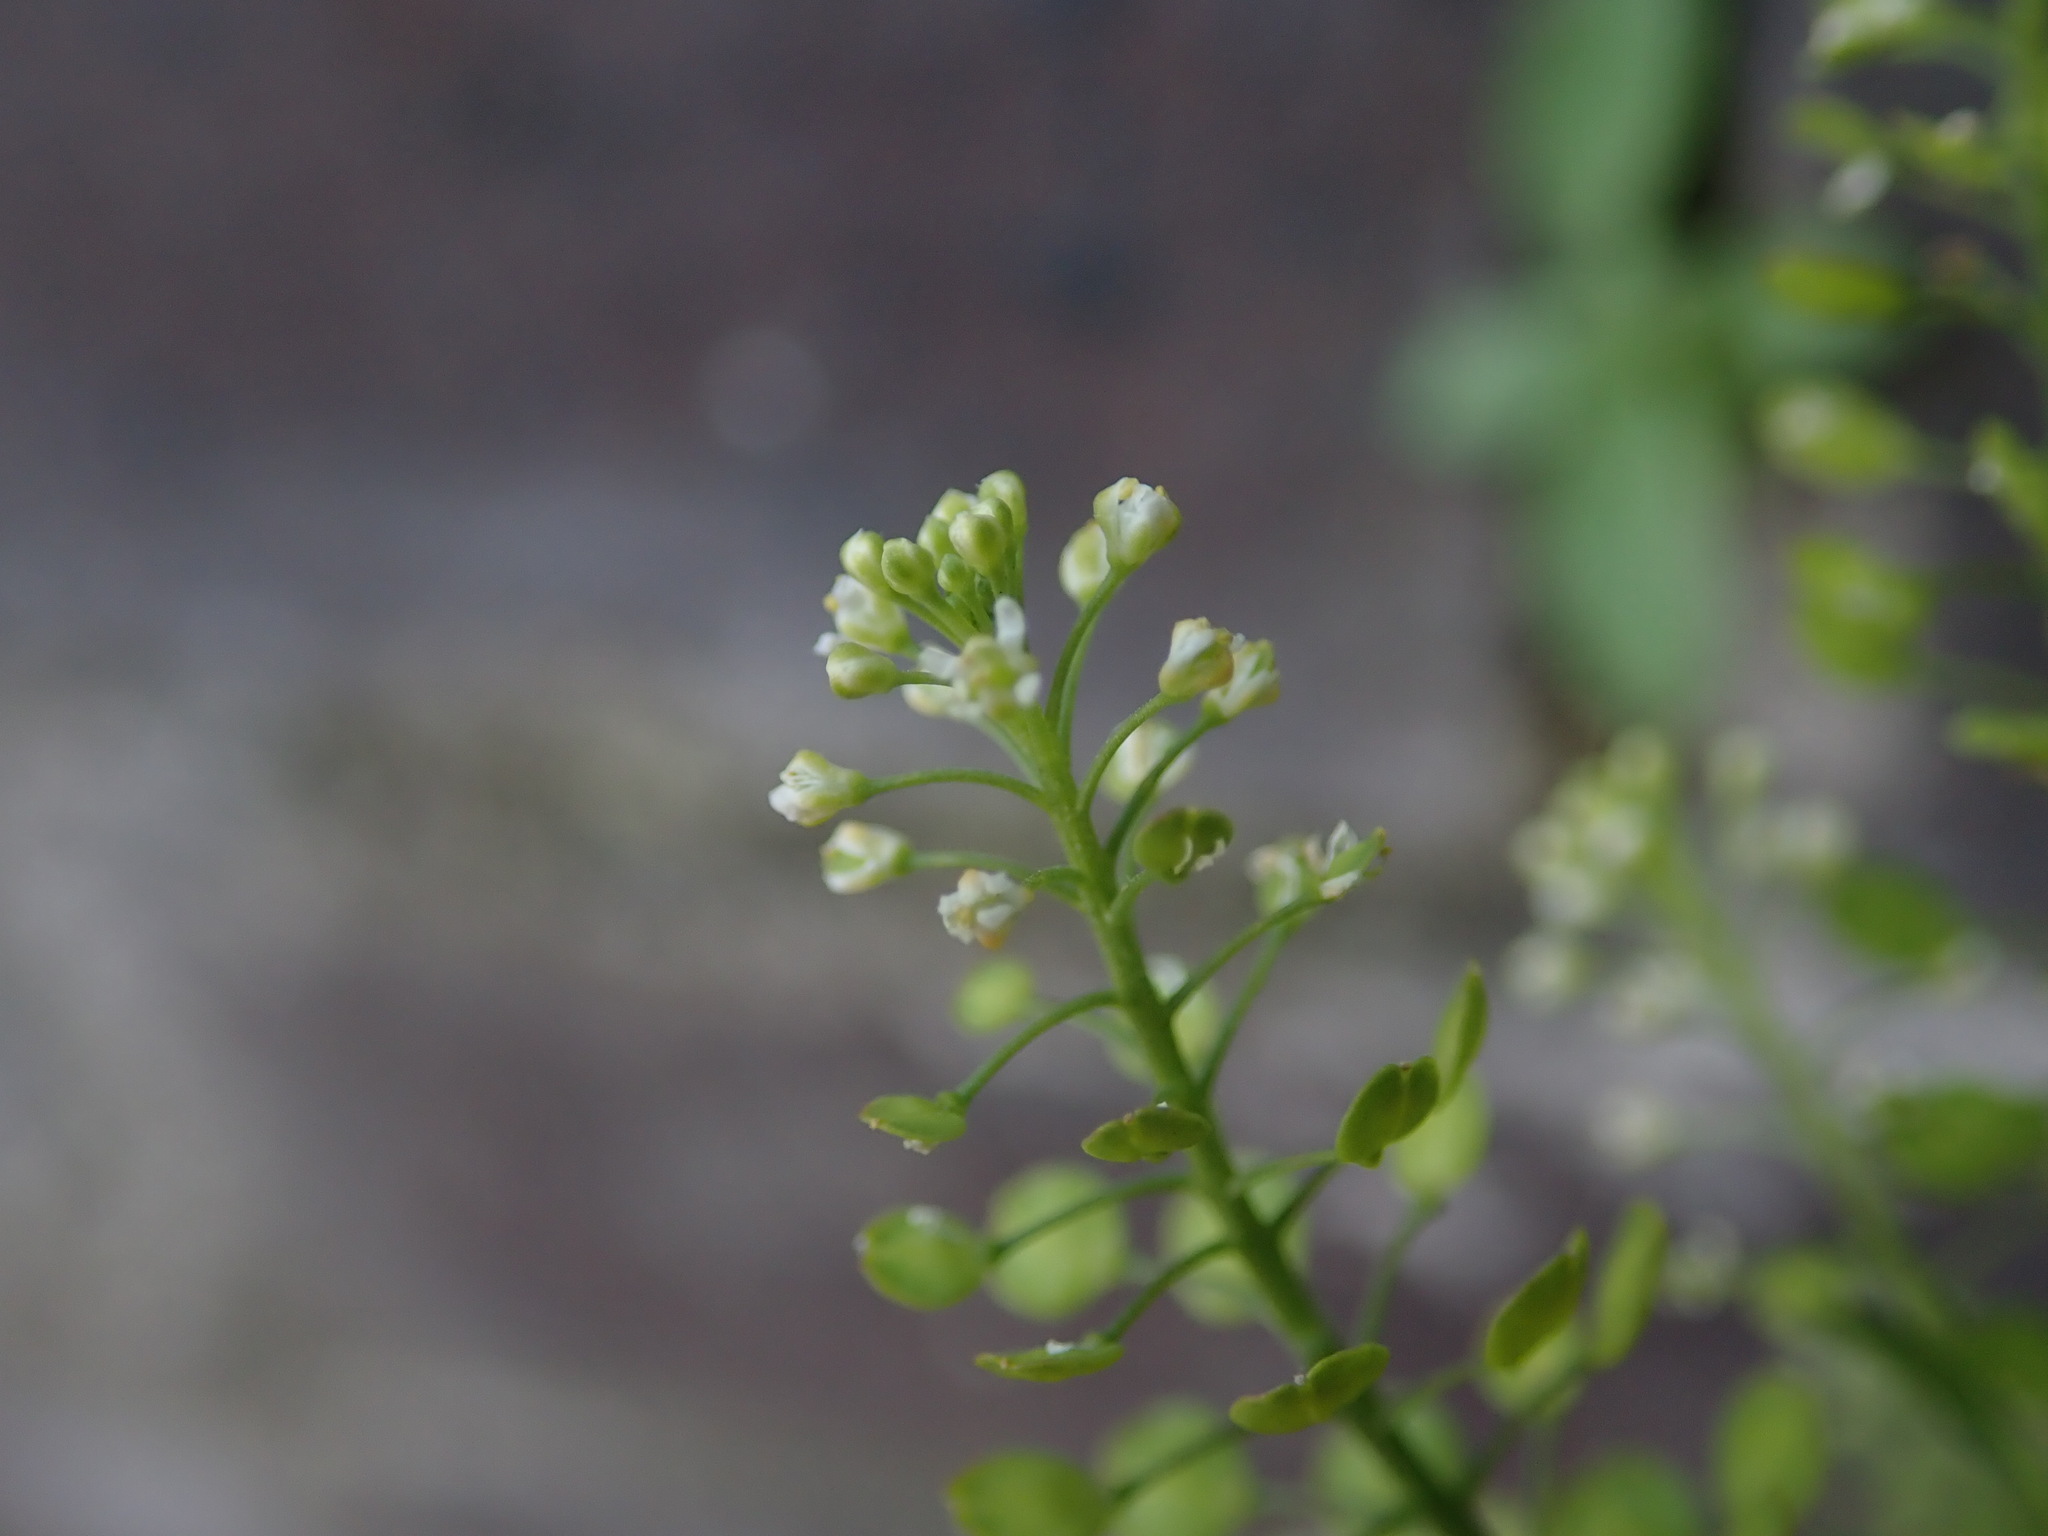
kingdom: Plantae
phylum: Tracheophyta
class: Magnoliopsida
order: Brassicales
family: Brassicaceae
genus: Lepidium
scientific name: Lepidium virginicum
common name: Least pepperwort
